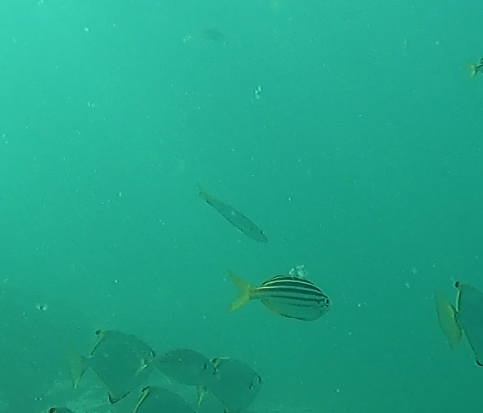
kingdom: Animalia
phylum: Chordata
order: Perciformes
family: Dinolestidae
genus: Dinolestes
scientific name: Dinolestes lewini
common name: Jack pike
